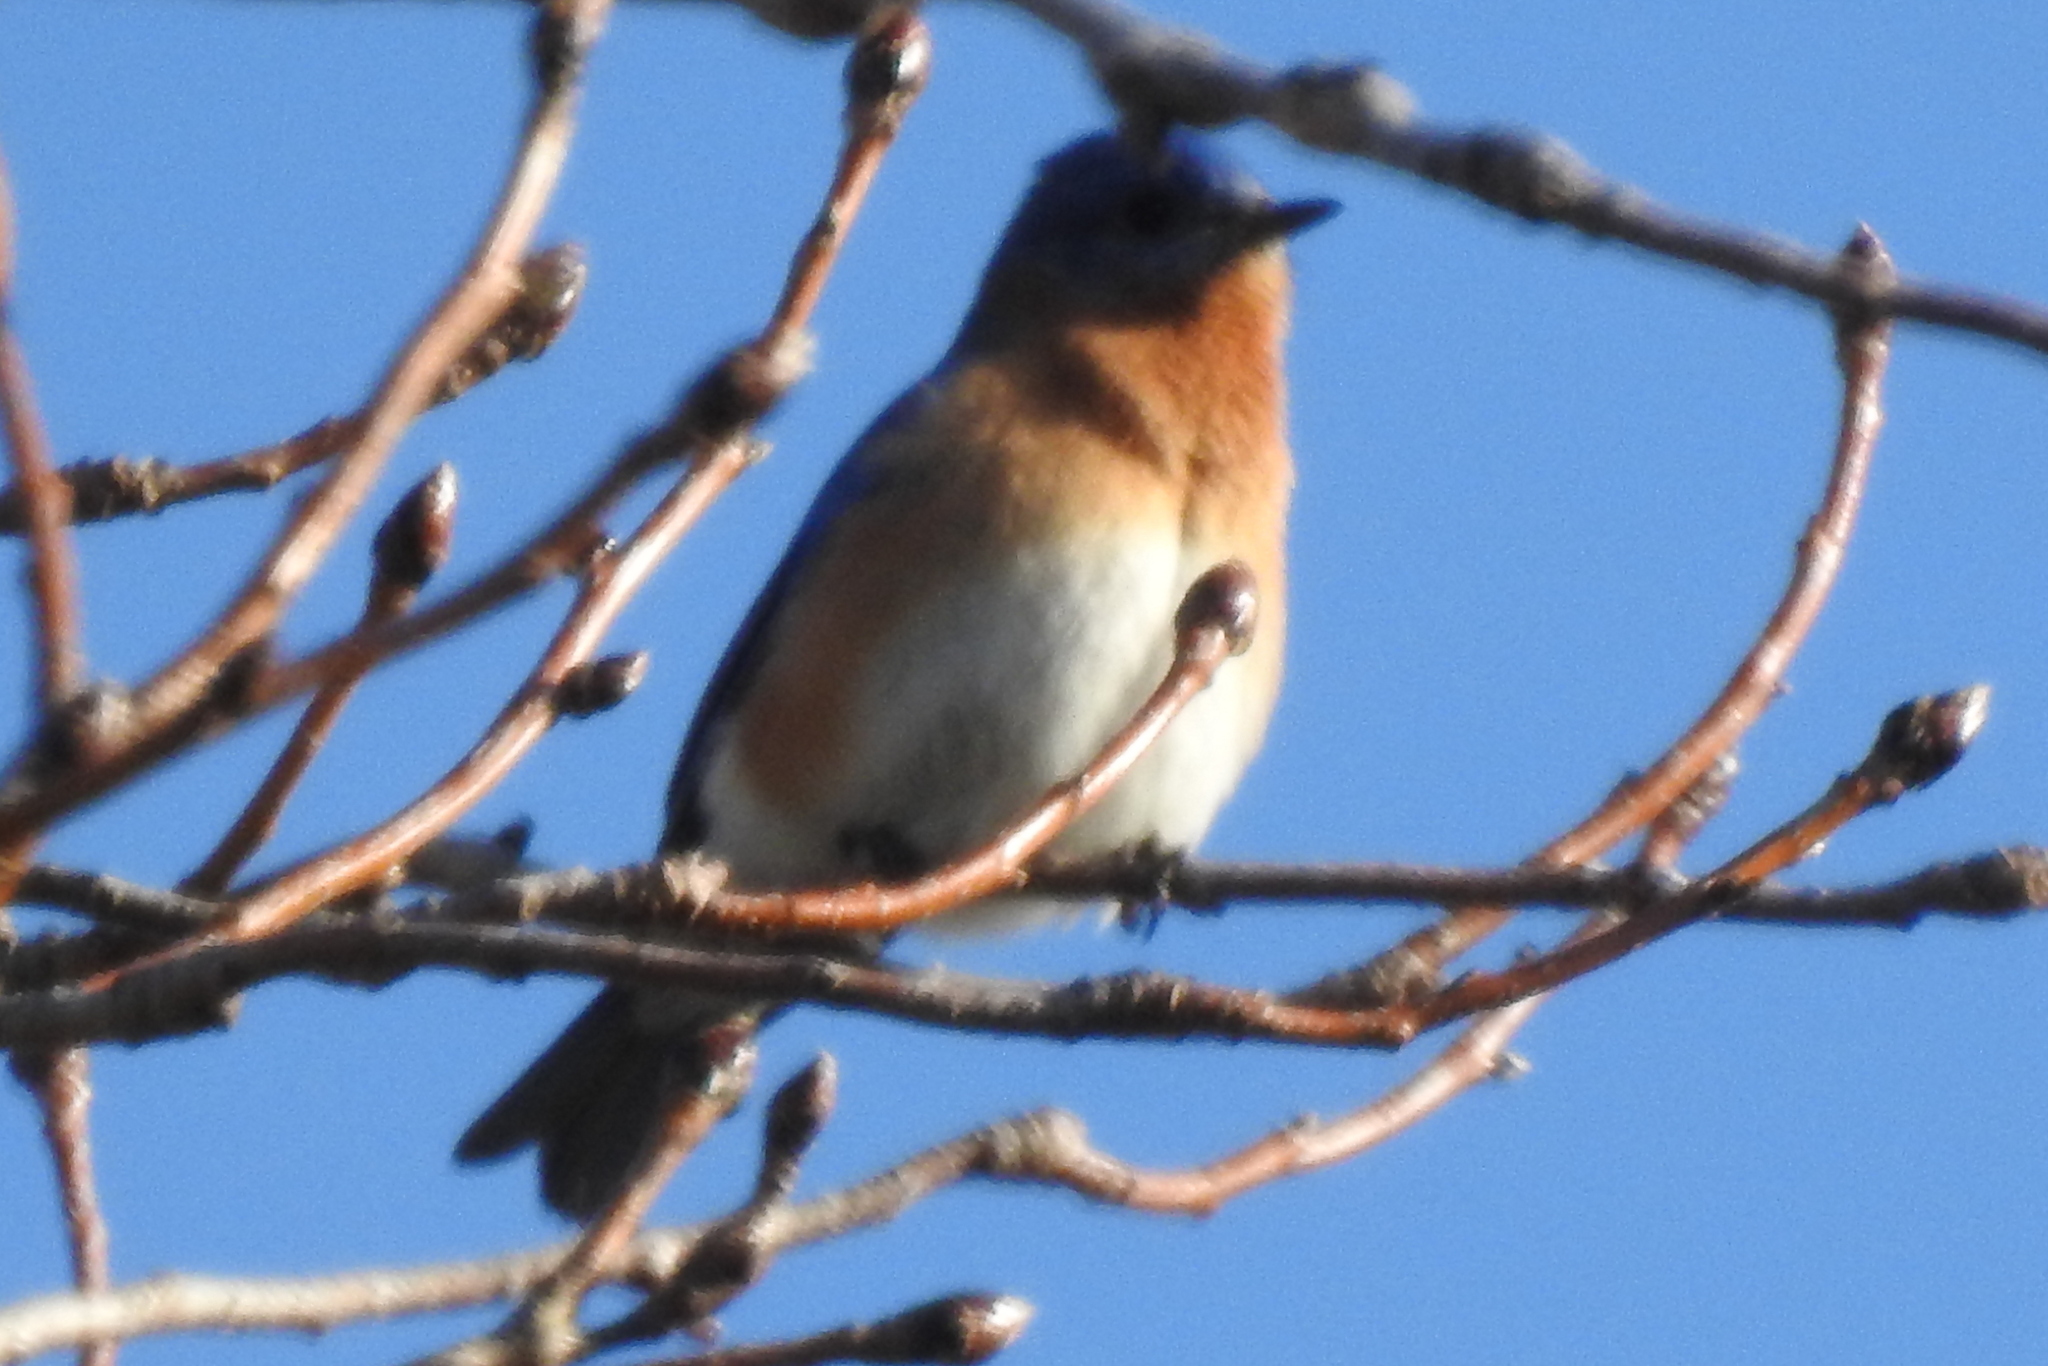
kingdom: Animalia
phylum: Chordata
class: Aves
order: Passeriformes
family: Turdidae
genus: Sialia
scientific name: Sialia sialis
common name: Eastern bluebird
